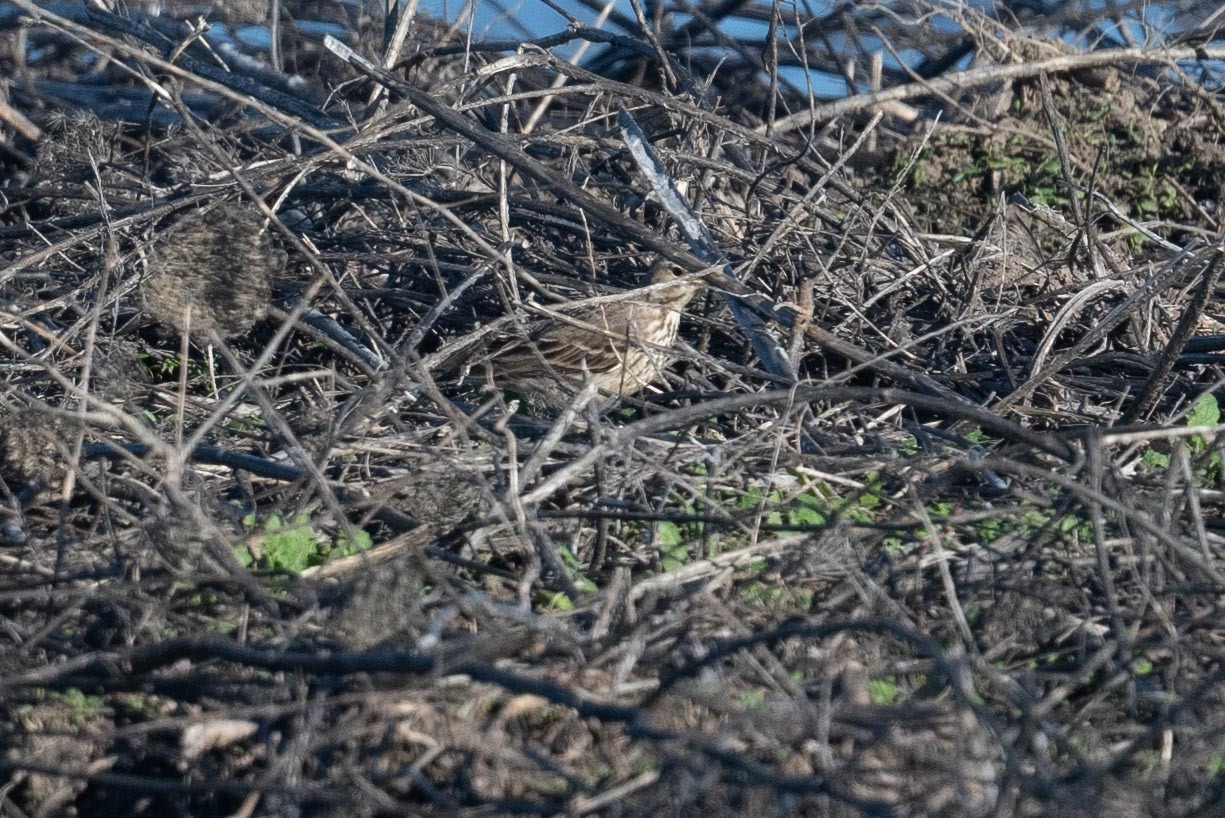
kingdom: Animalia
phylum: Chordata
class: Aves
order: Passeriformes
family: Motacillidae
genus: Anthus
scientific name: Anthus rubescens
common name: Buff-bellied pipit
